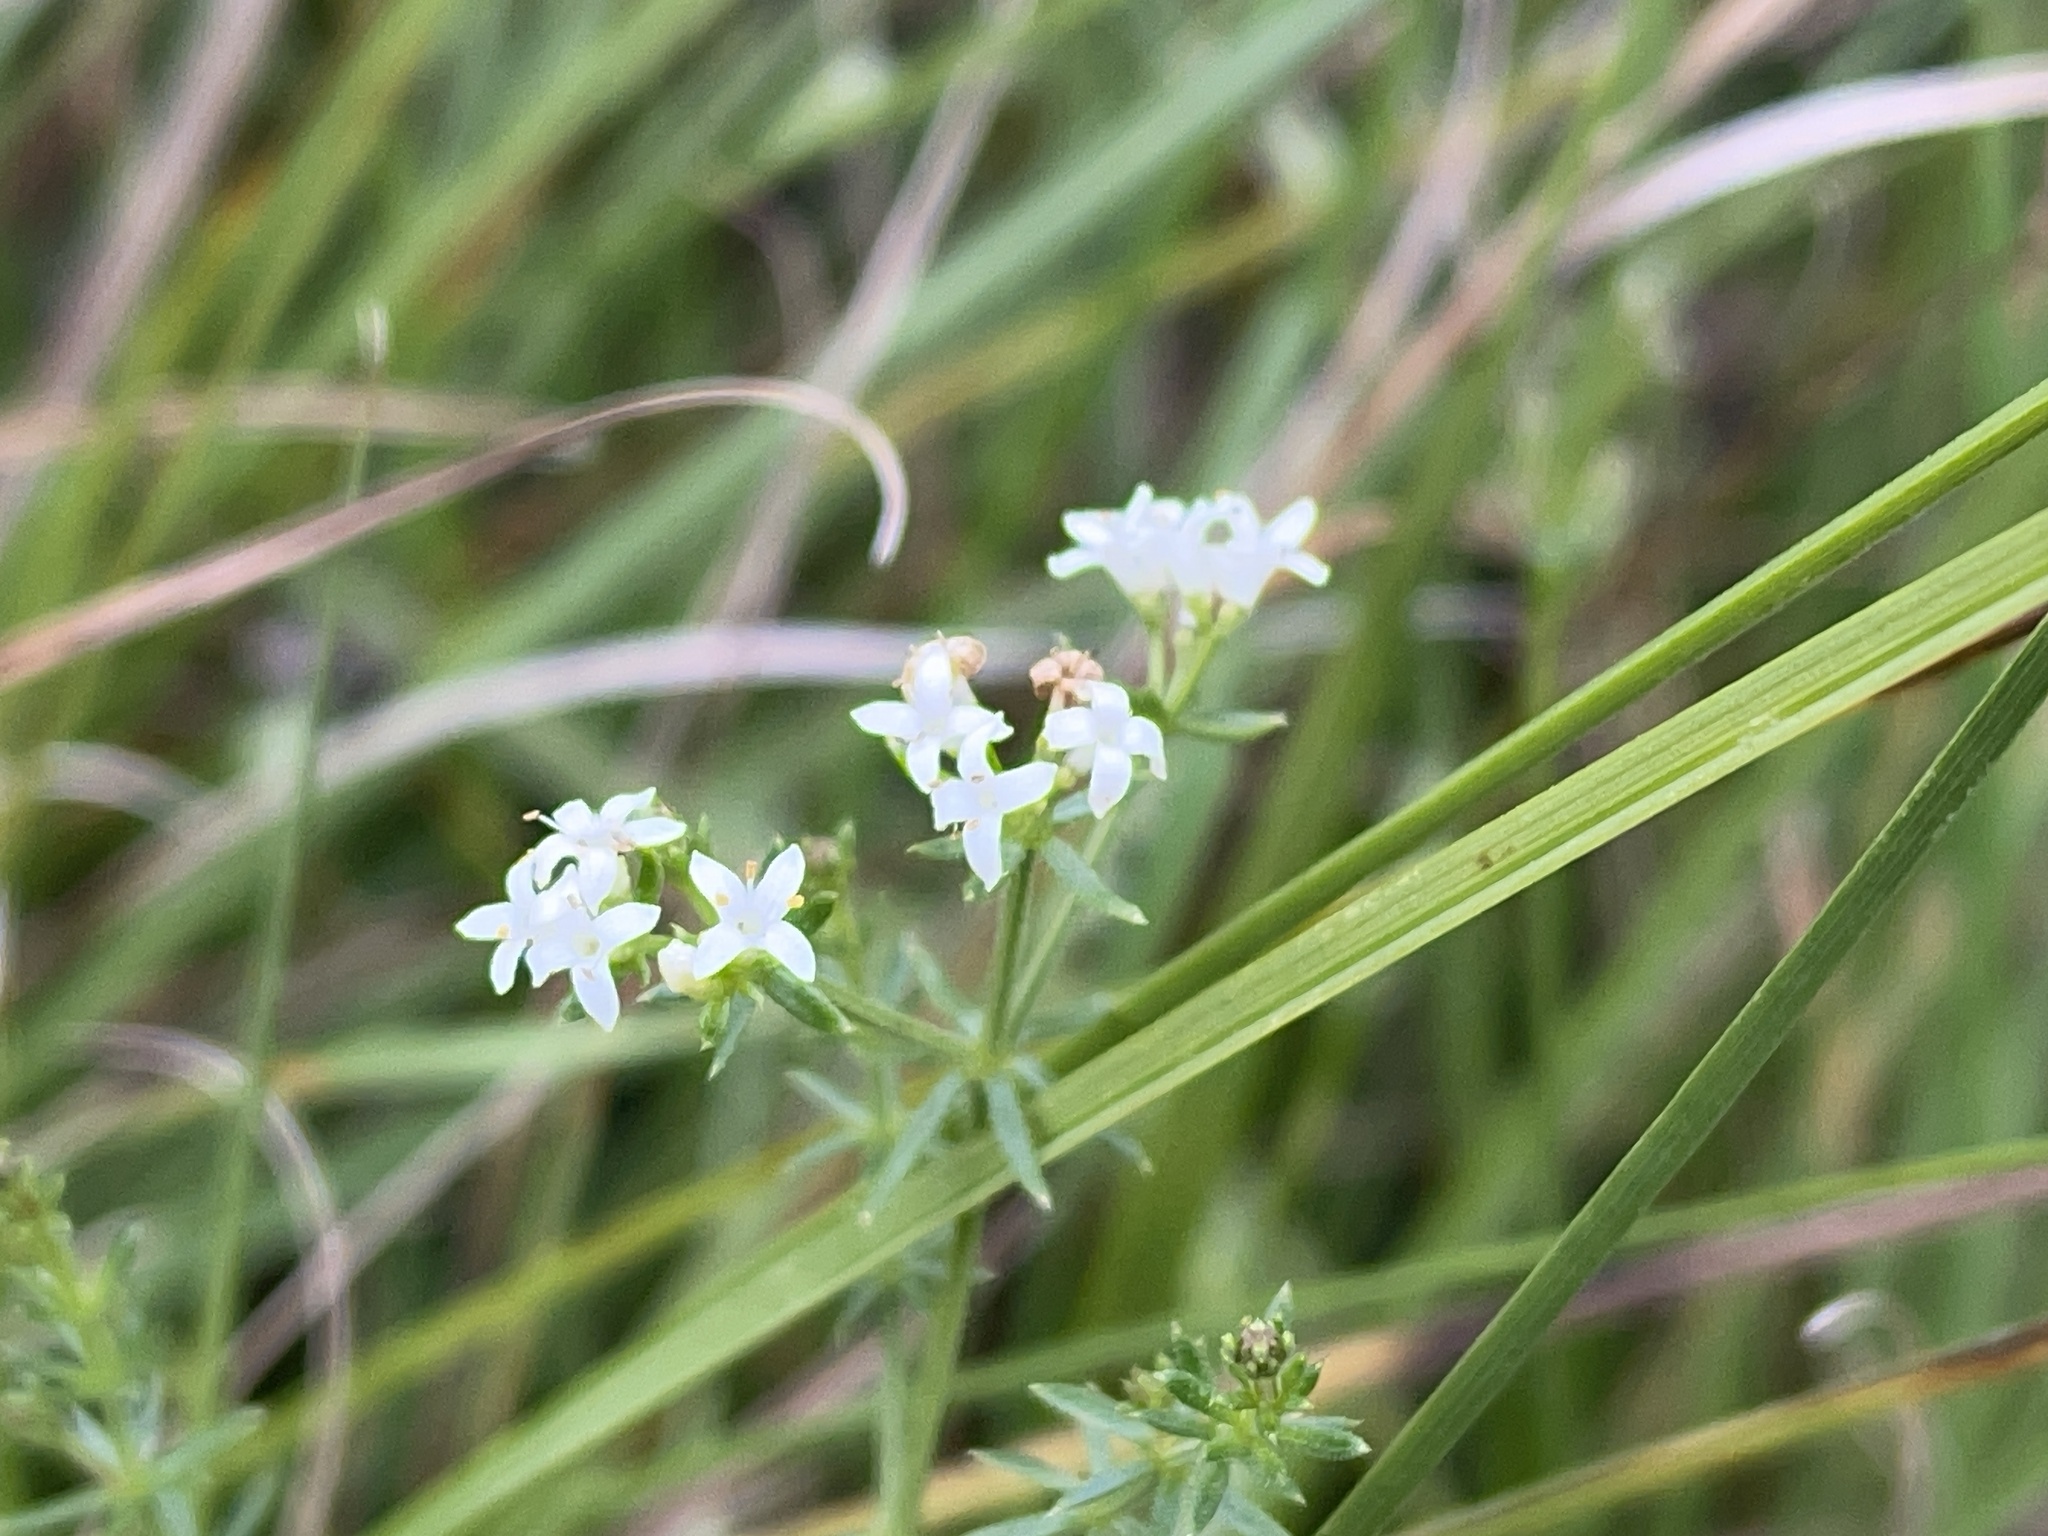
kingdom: Plantae
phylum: Tracheophyta
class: Magnoliopsida
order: Gentianales
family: Rubiaceae
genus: Asperula
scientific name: Asperula conferta
